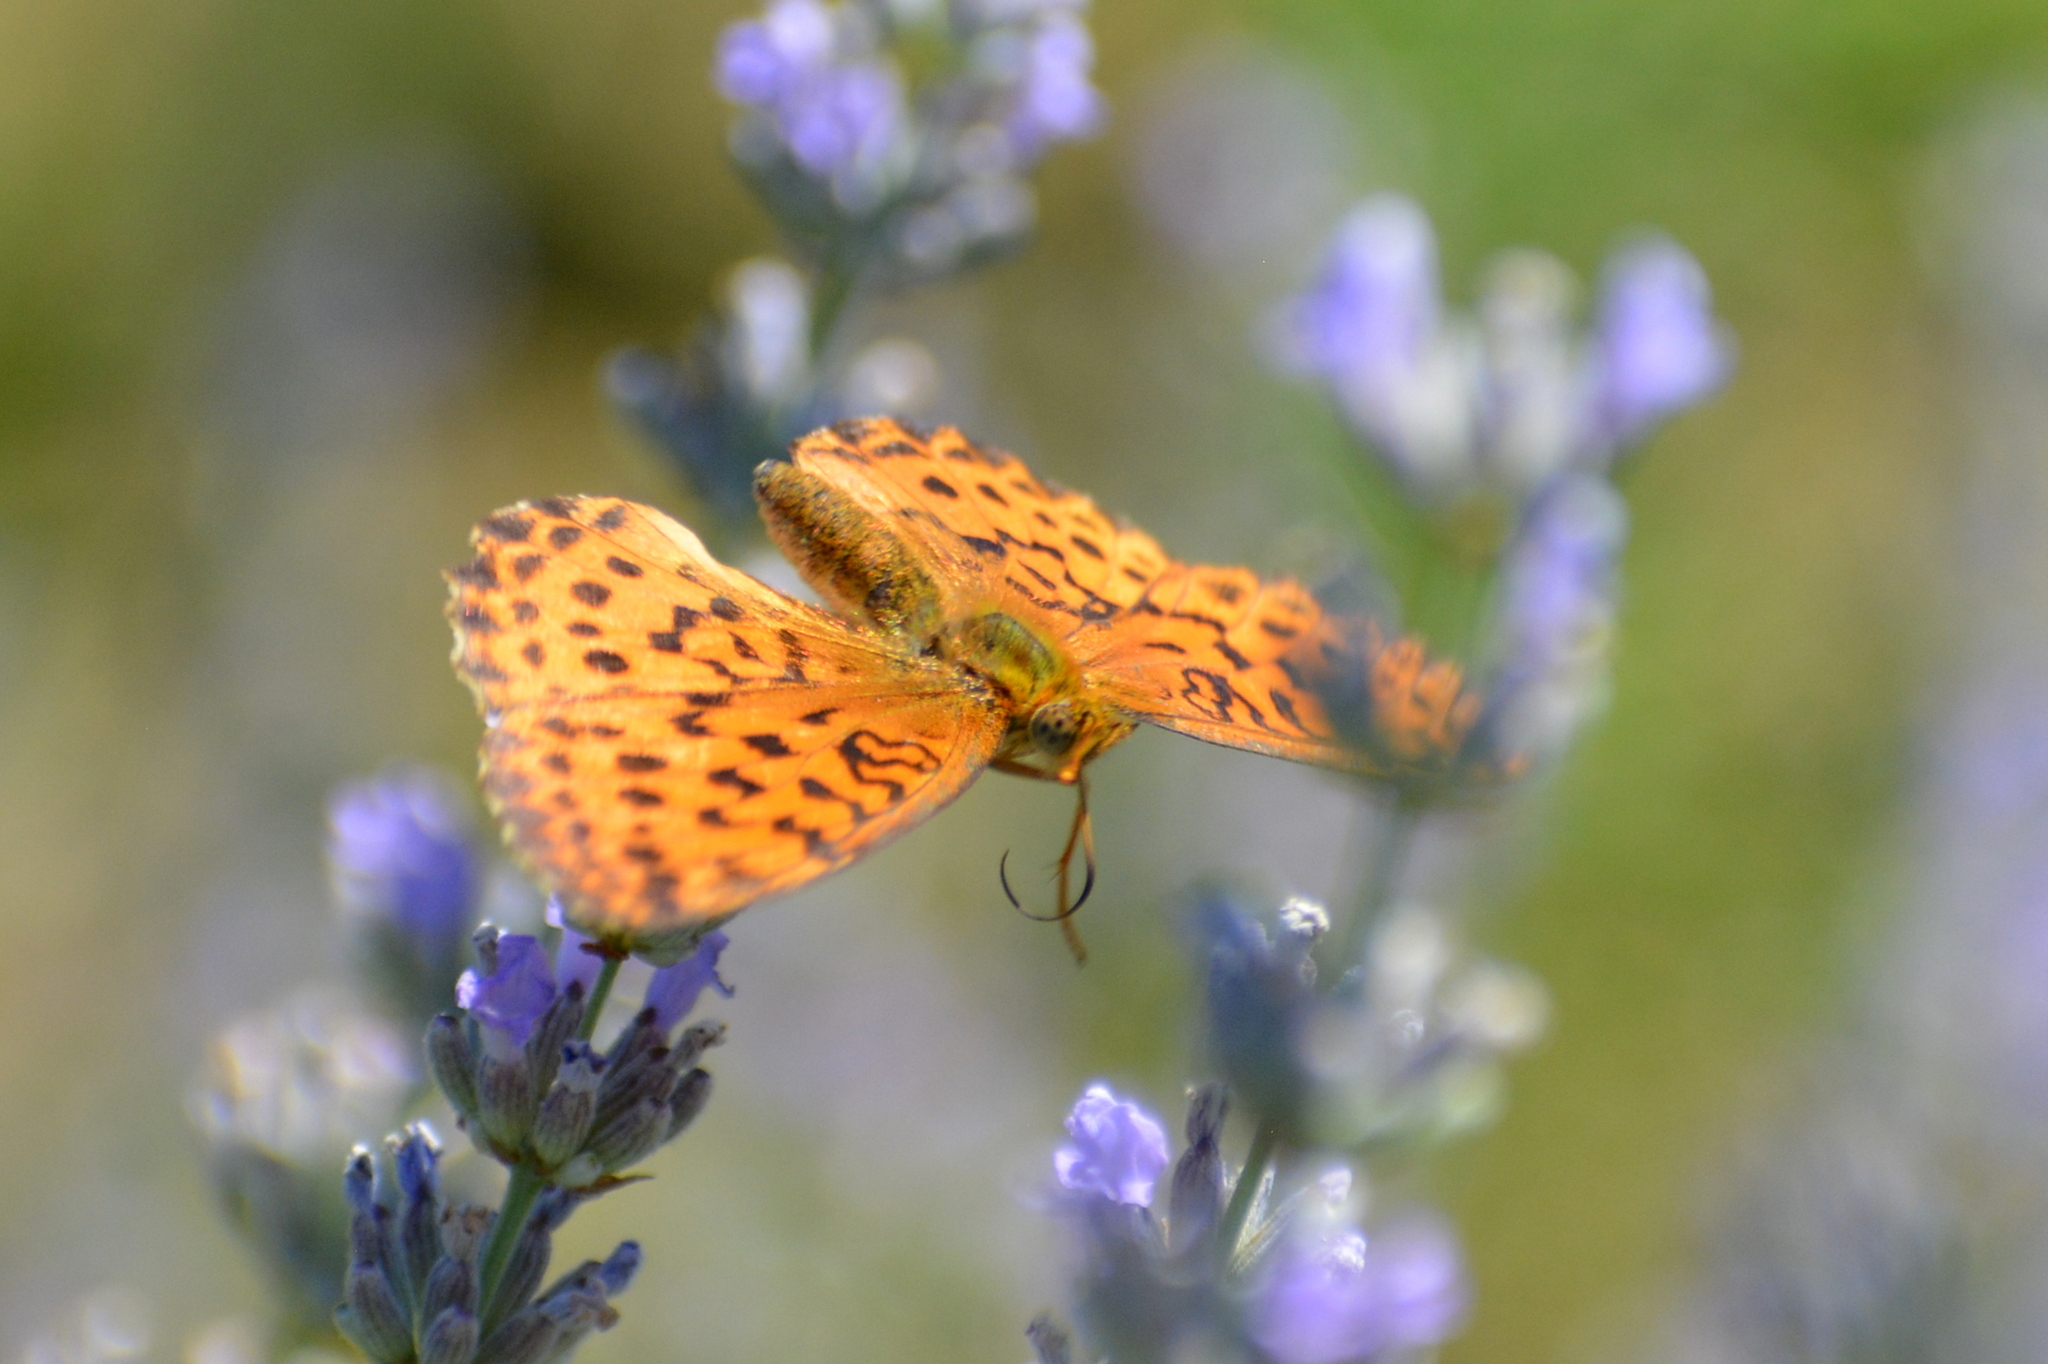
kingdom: Animalia
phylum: Arthropoda
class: Insecta
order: Lepidoptera
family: Nymphalidae
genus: Brenthis
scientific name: Brenthis daphne
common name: Marbled fritillary
